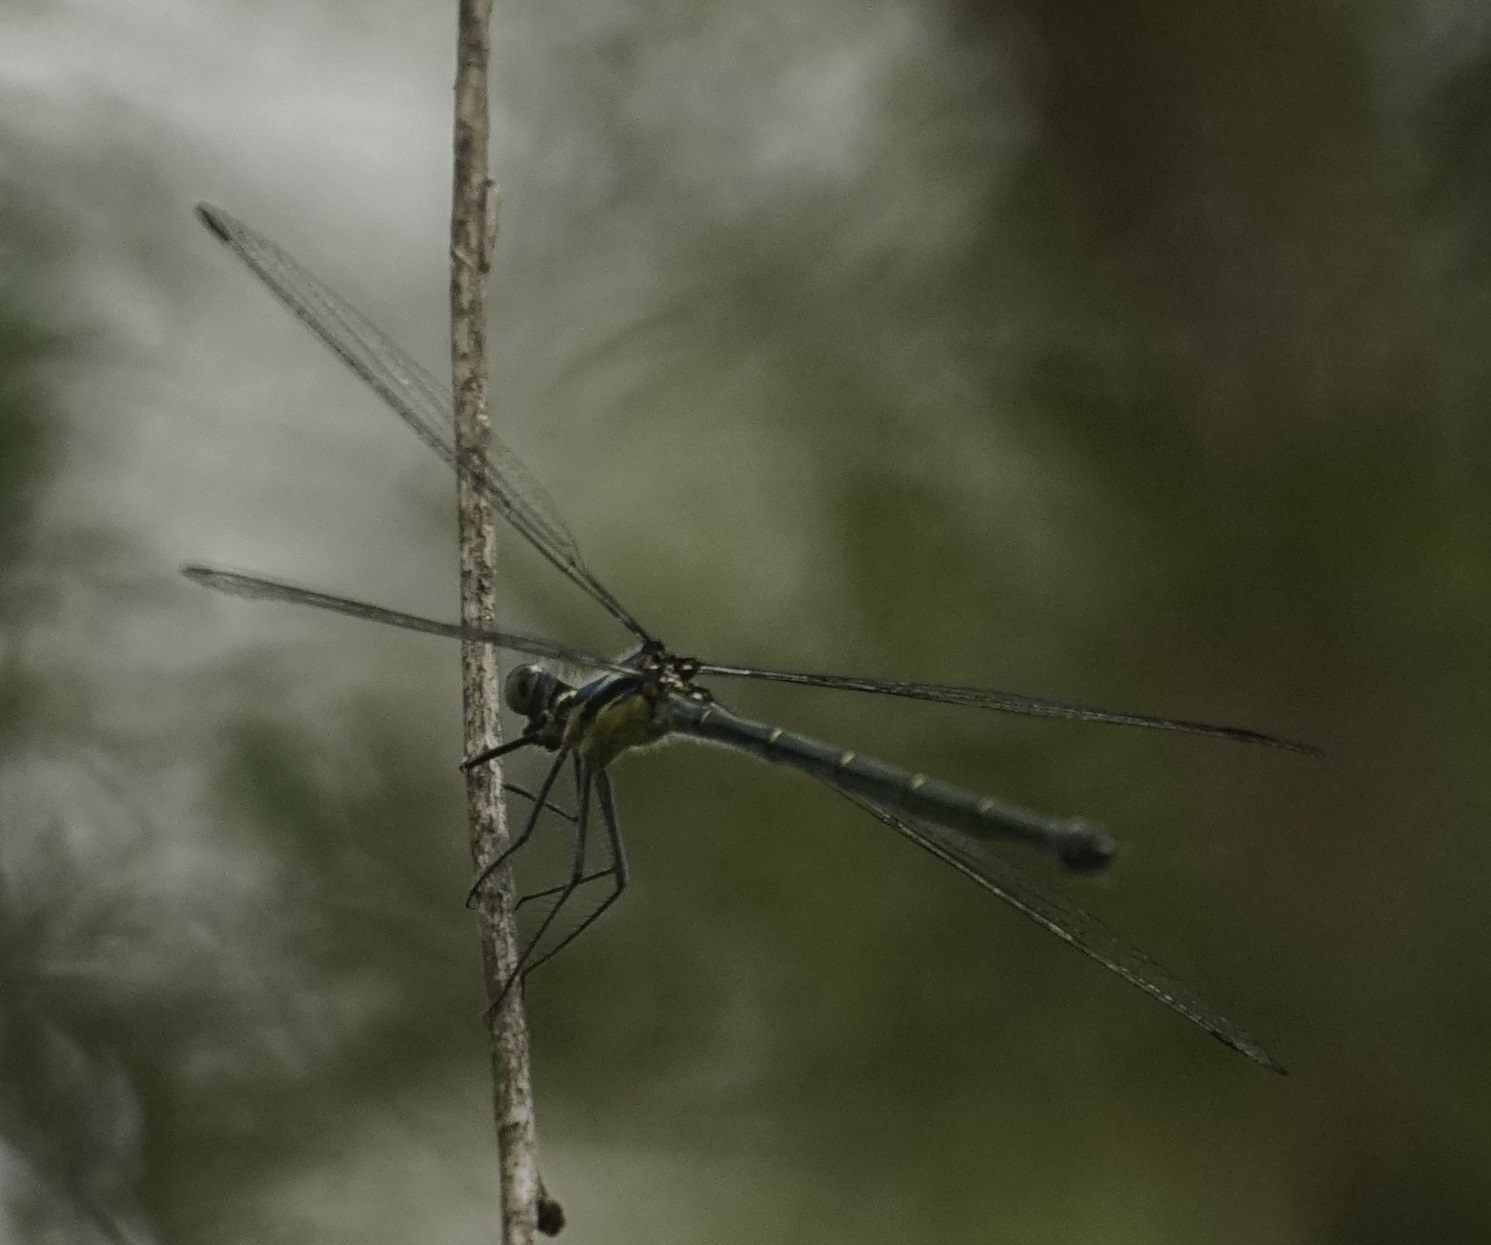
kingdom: Animalia
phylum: Arthropoda
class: Insecta
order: Odonata
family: Argiolestidae
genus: Austroargiolestes
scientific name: Austroargiolestes icteromelas
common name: Common flatwing
